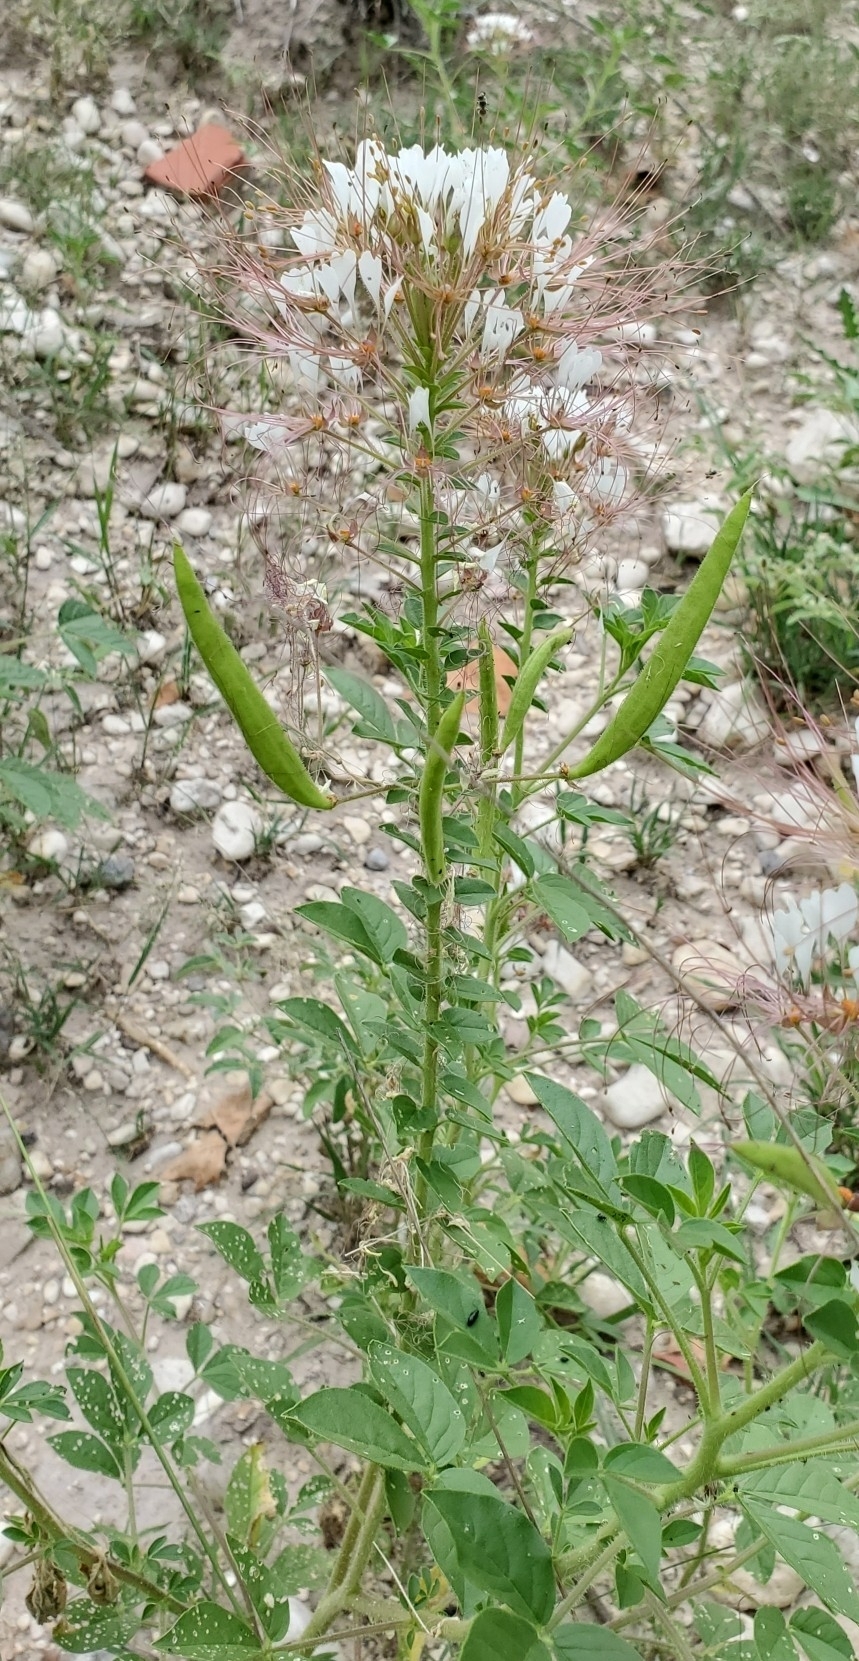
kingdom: Plantae
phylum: Tracheophyta
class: Magnoliopsida
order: Brassicales
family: Cleomaceae
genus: Polanisia
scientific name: Polanisia dodecandra
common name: Clammyweed
